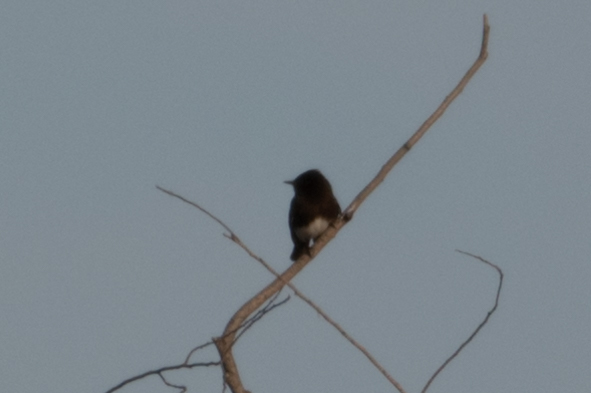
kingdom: Animalia
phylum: Chordata
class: Aves
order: Passeriformes
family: Tyrannidae
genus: Sayornis
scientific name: Sayornis nigricans
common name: Black phoebe
